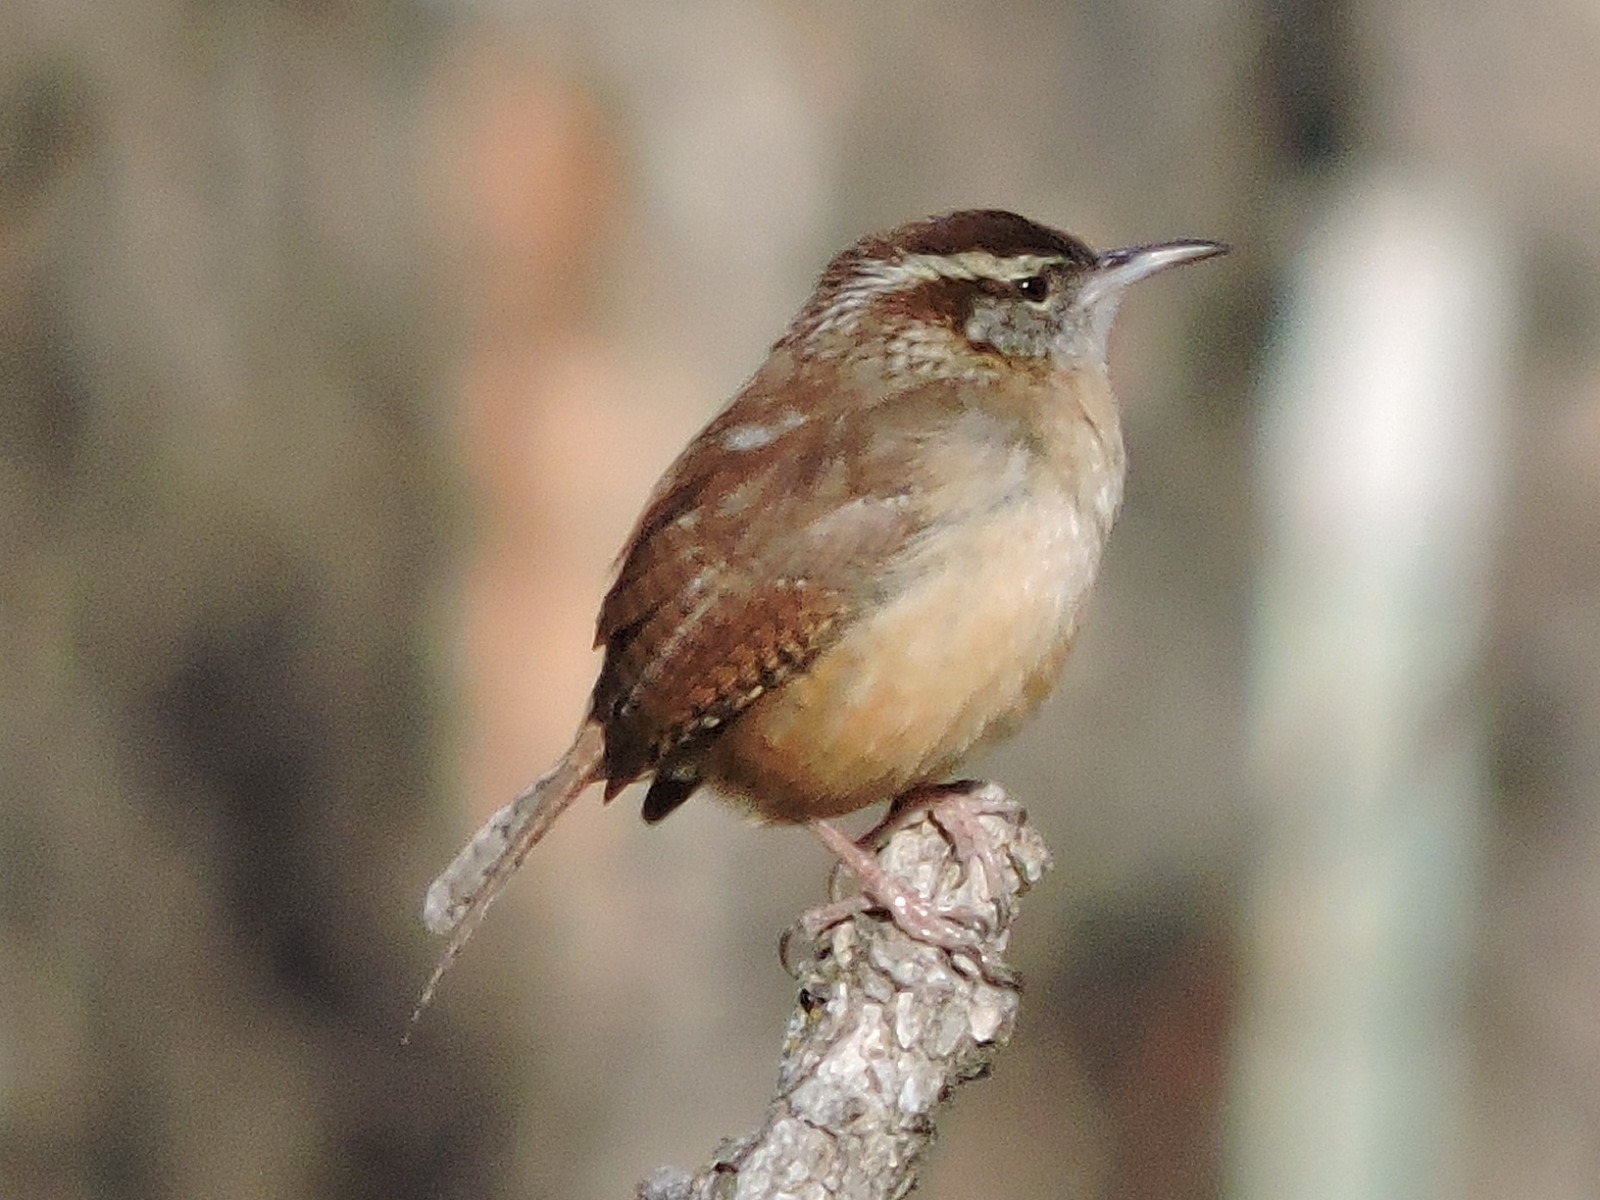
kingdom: Animalia
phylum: Chordata
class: Aves
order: Passeriformes
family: Troglodytidae
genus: Thryothorus
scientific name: Thryothorus ludovicianus
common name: Carolina wren
